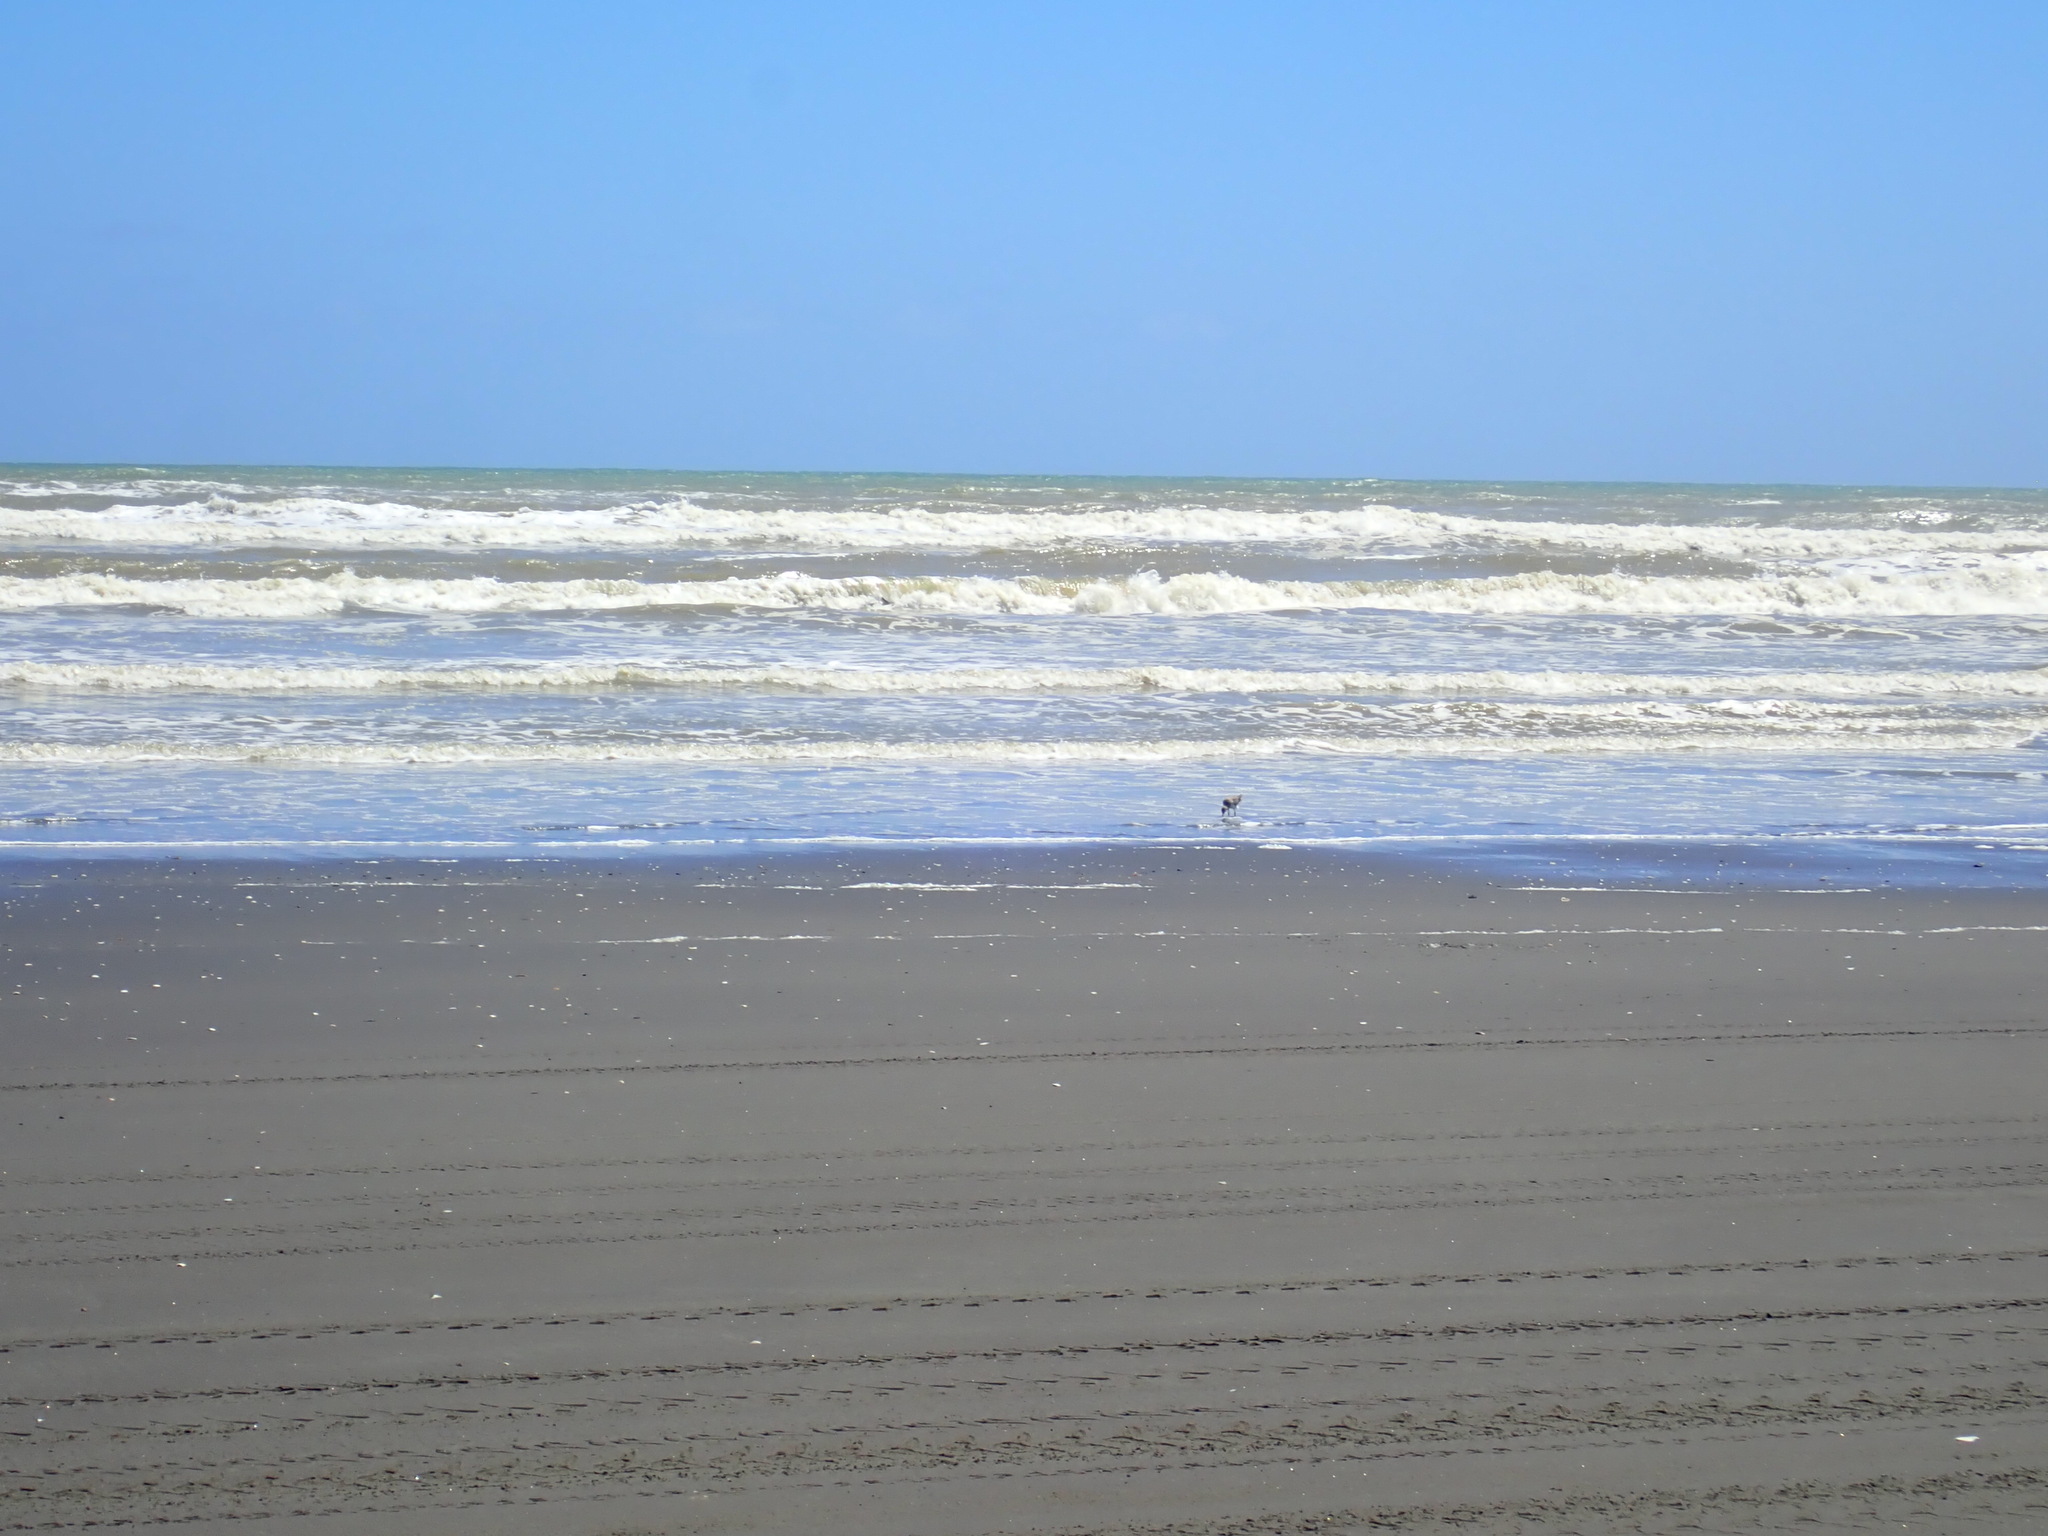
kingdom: Animalia
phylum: Chordata
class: Aves
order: Charadriiformes
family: Scolopacidae
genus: Limosa
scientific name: Limosa lapponica
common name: Bar-tailed godwit
